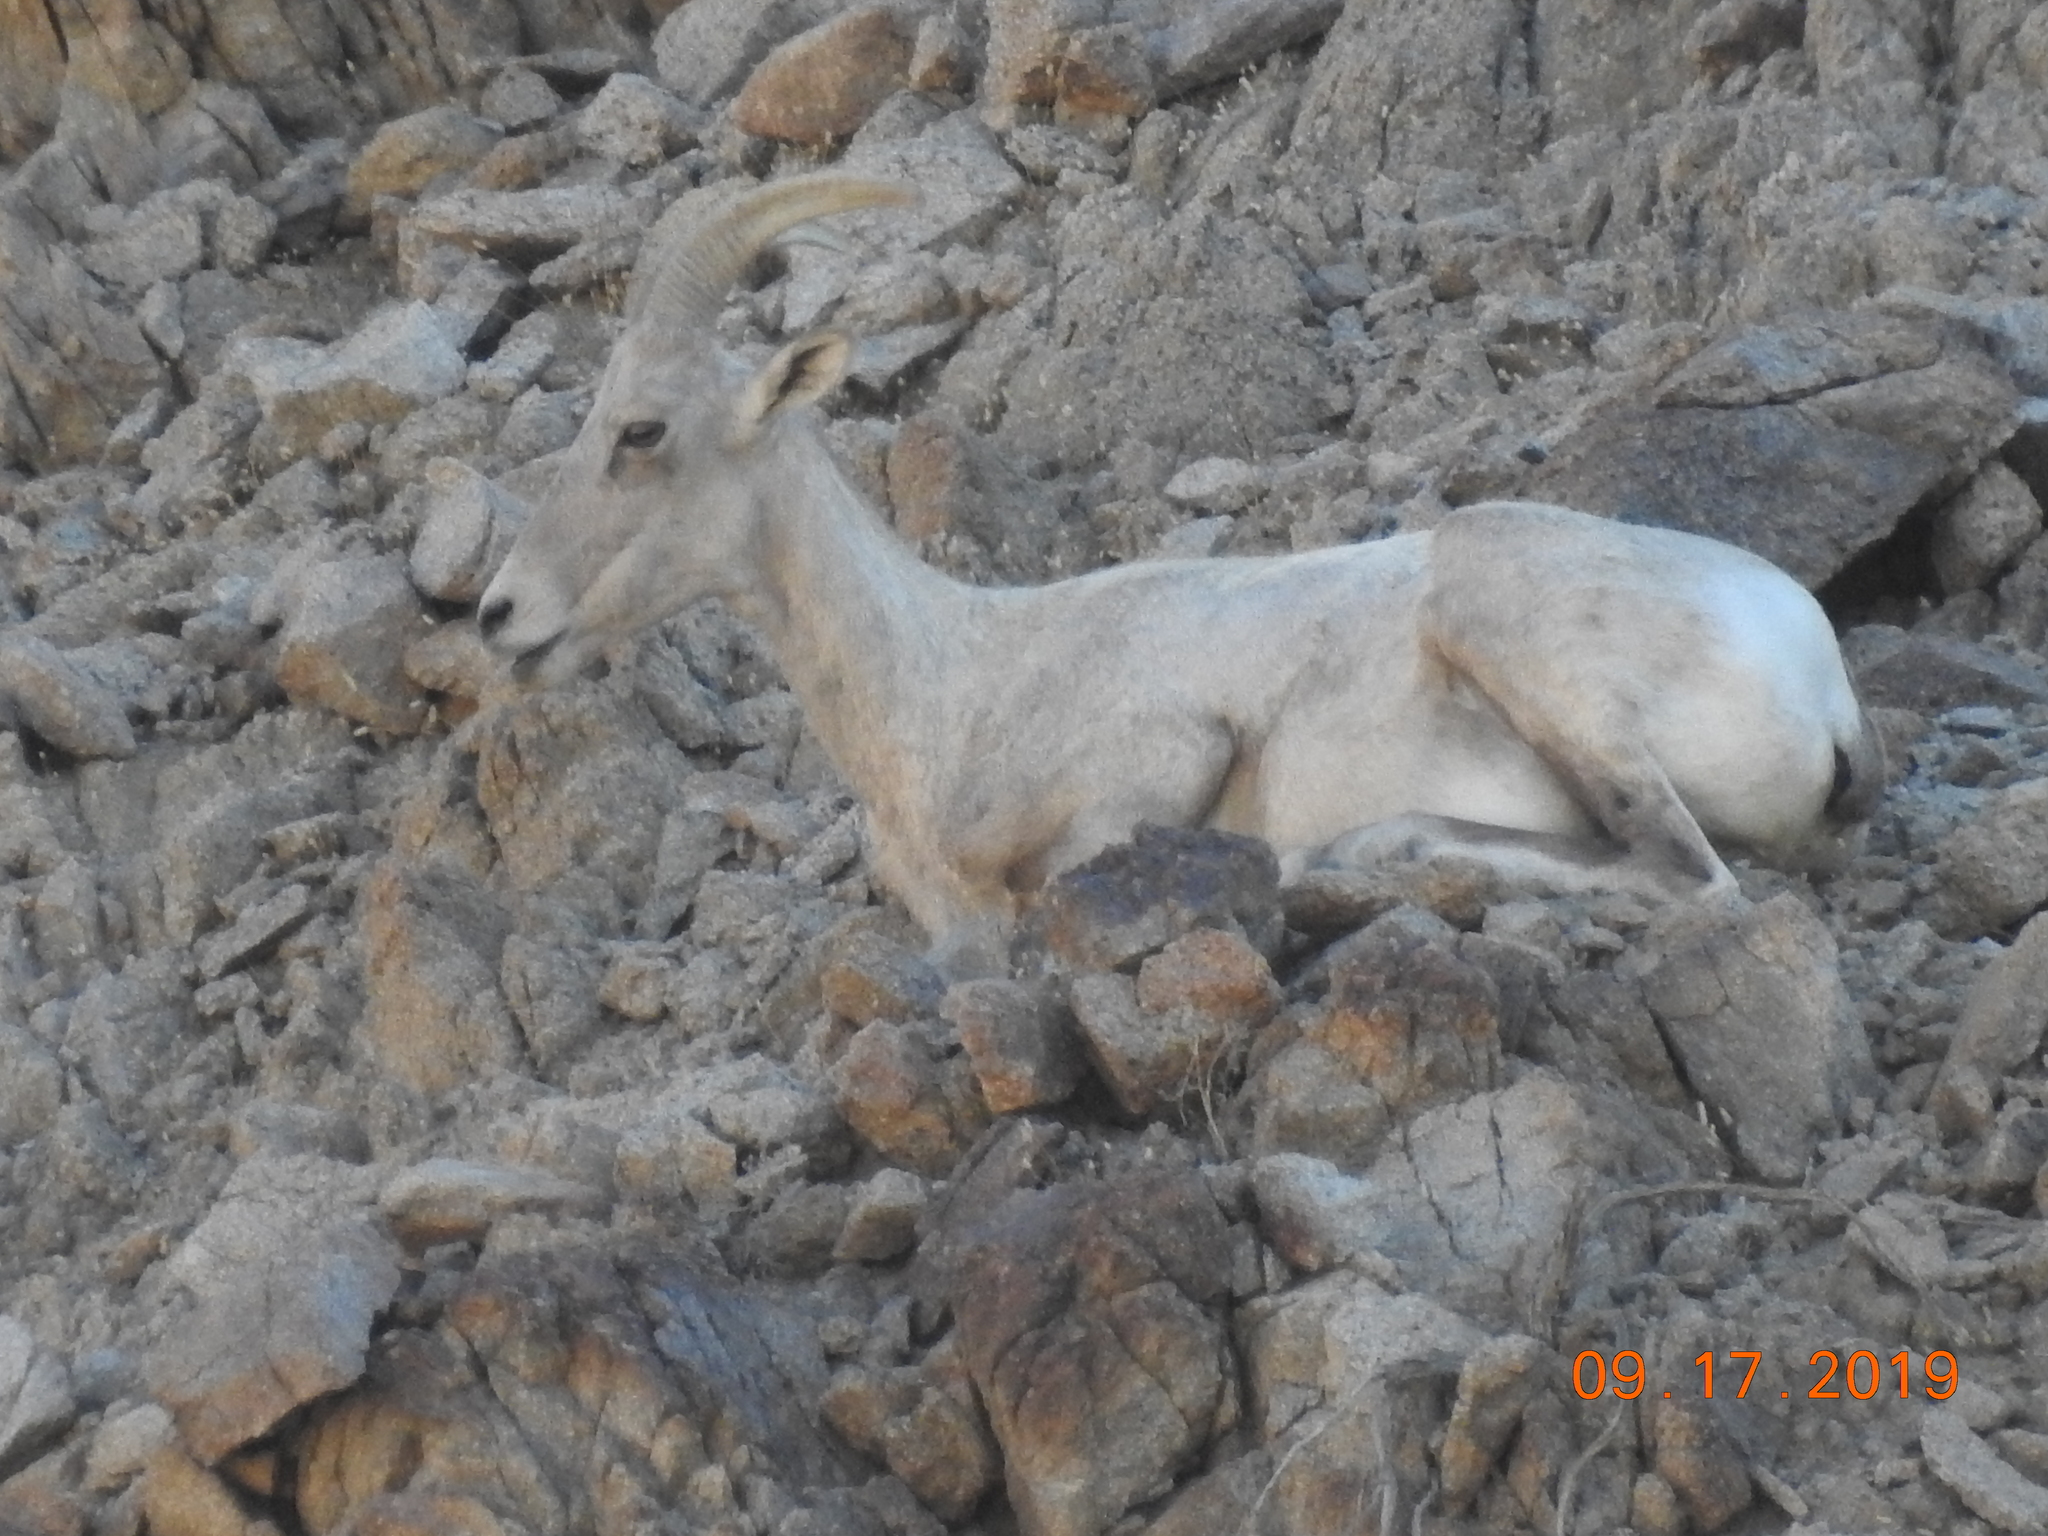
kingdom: Animalia
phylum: Chordata
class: Mammalia
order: Artiodactyla
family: Bovidae
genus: Ovis
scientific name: Ovis canadensis
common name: Bighorn sheep
